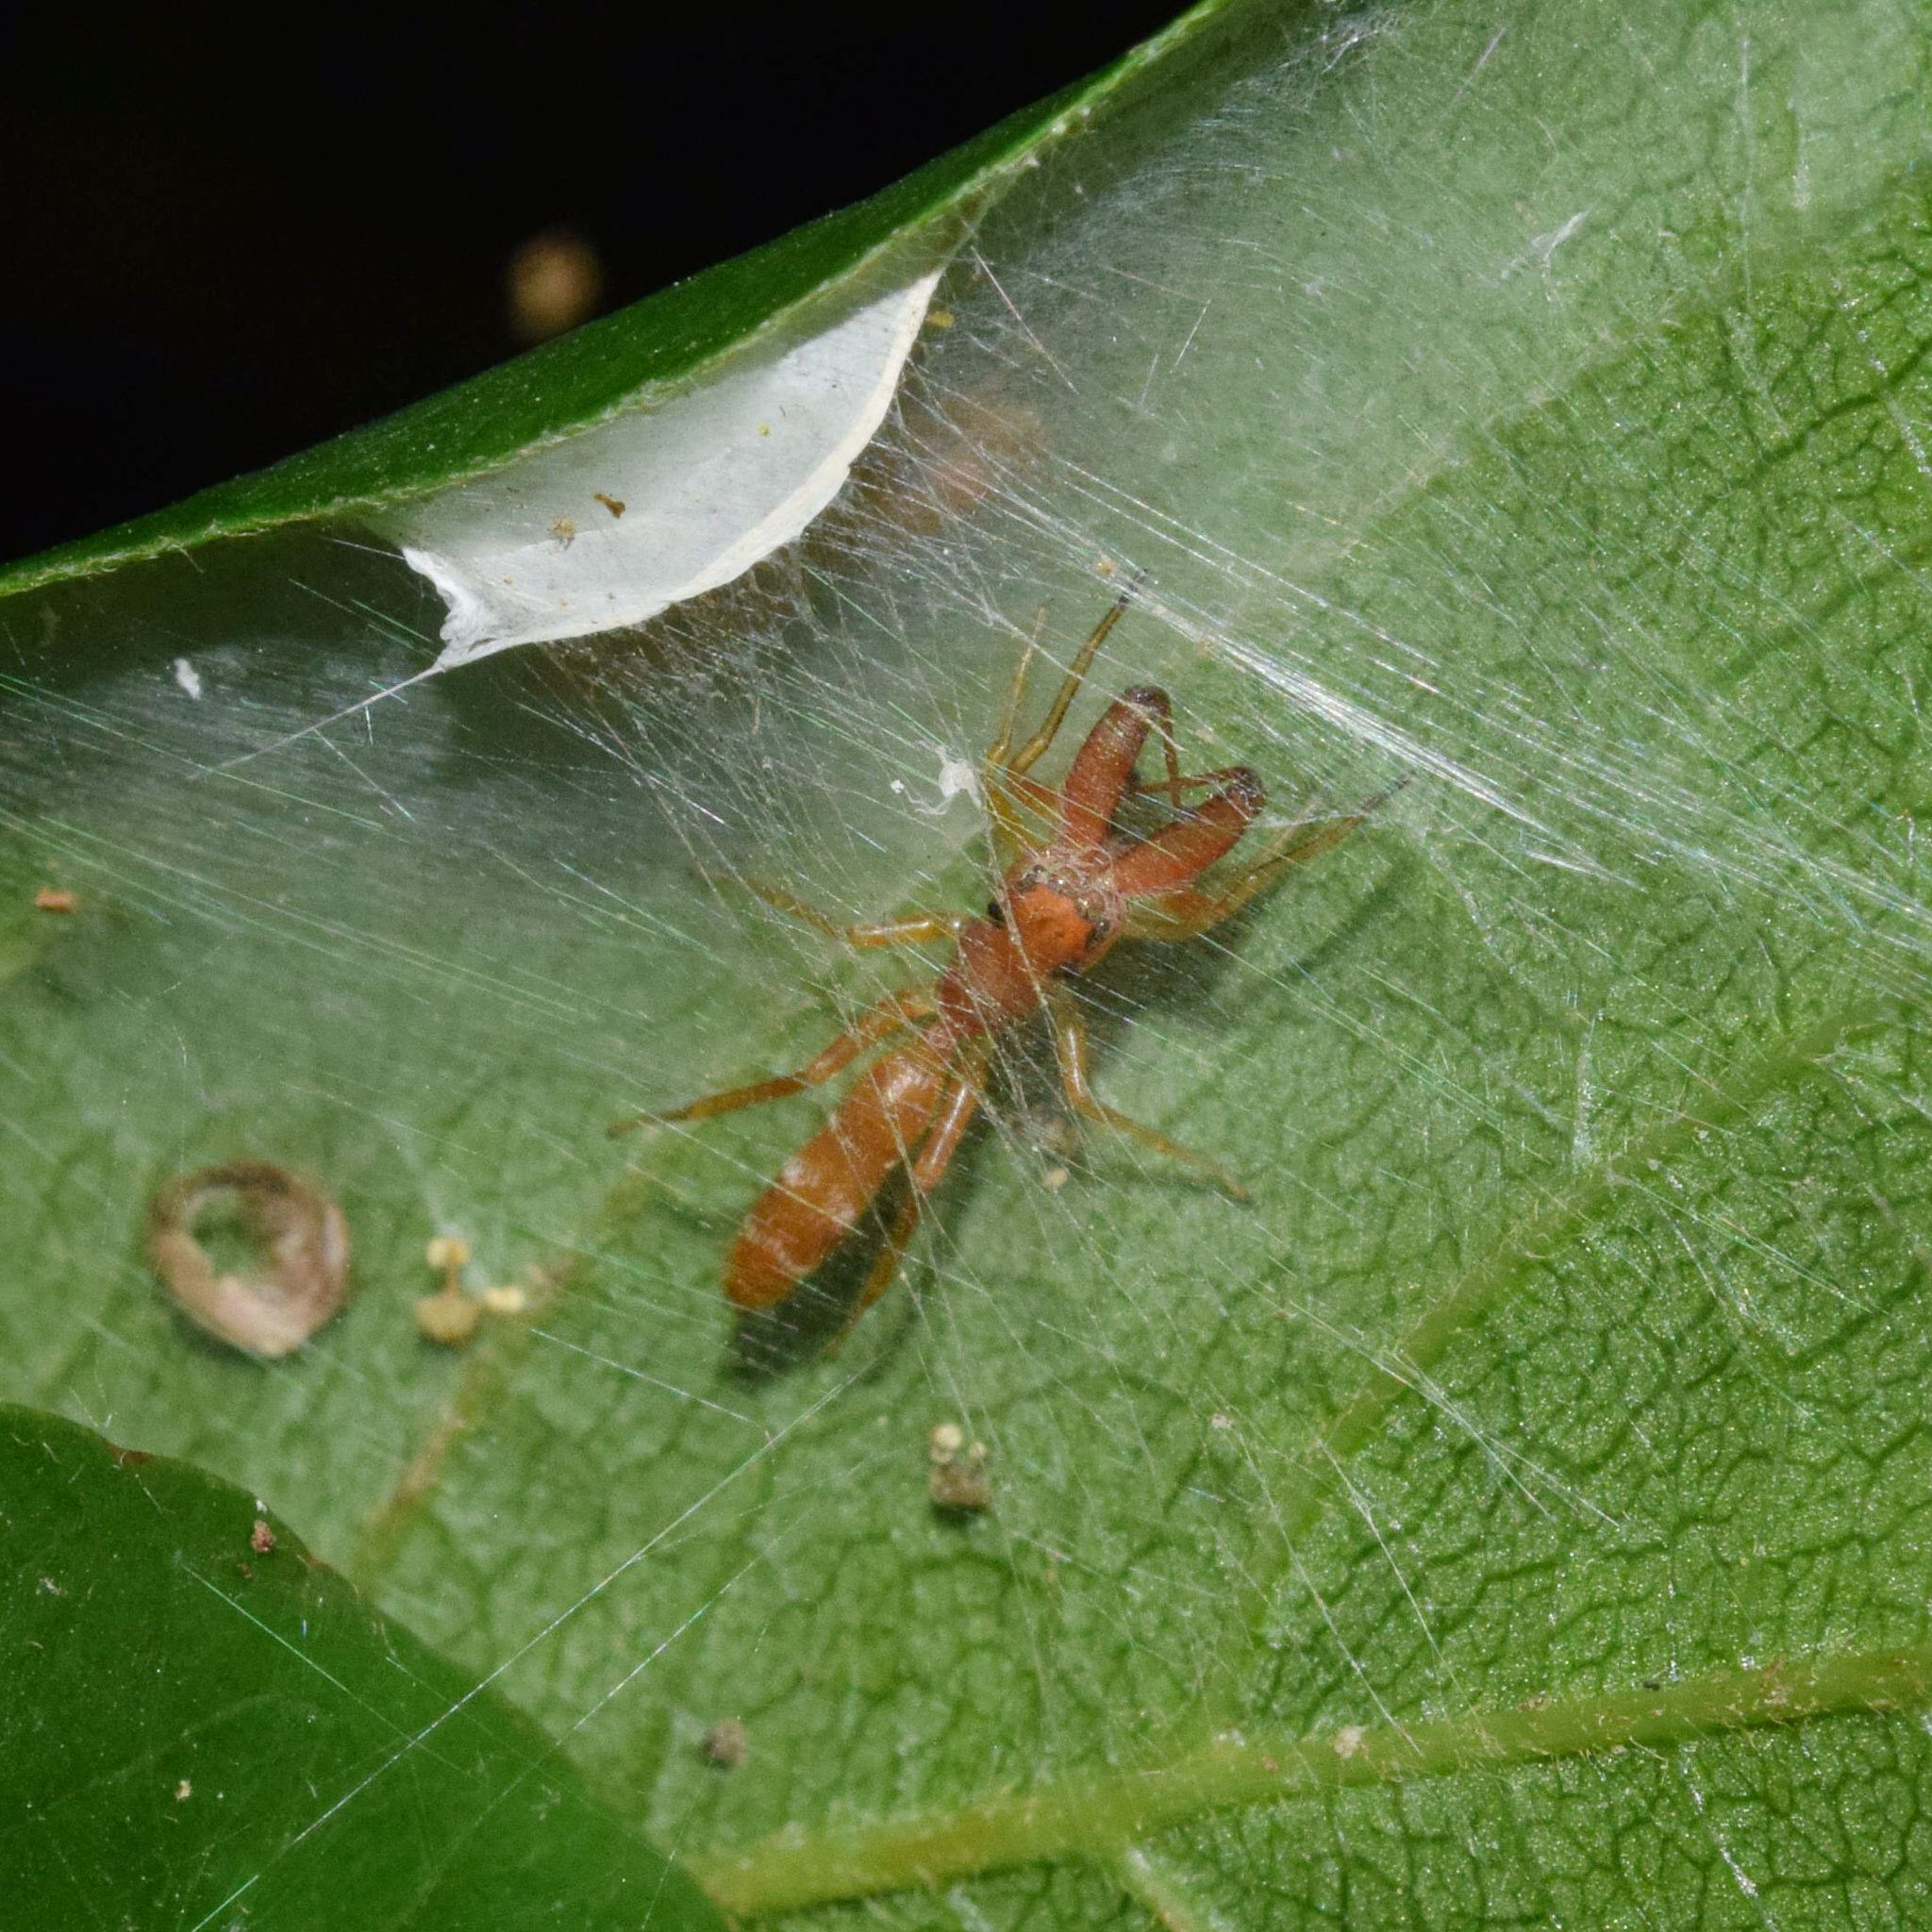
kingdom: Animalia
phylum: Arthropoda
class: Arachnida
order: Araneae
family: Salticidae
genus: Myrmarachne
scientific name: Myrmarachne ichneumon
